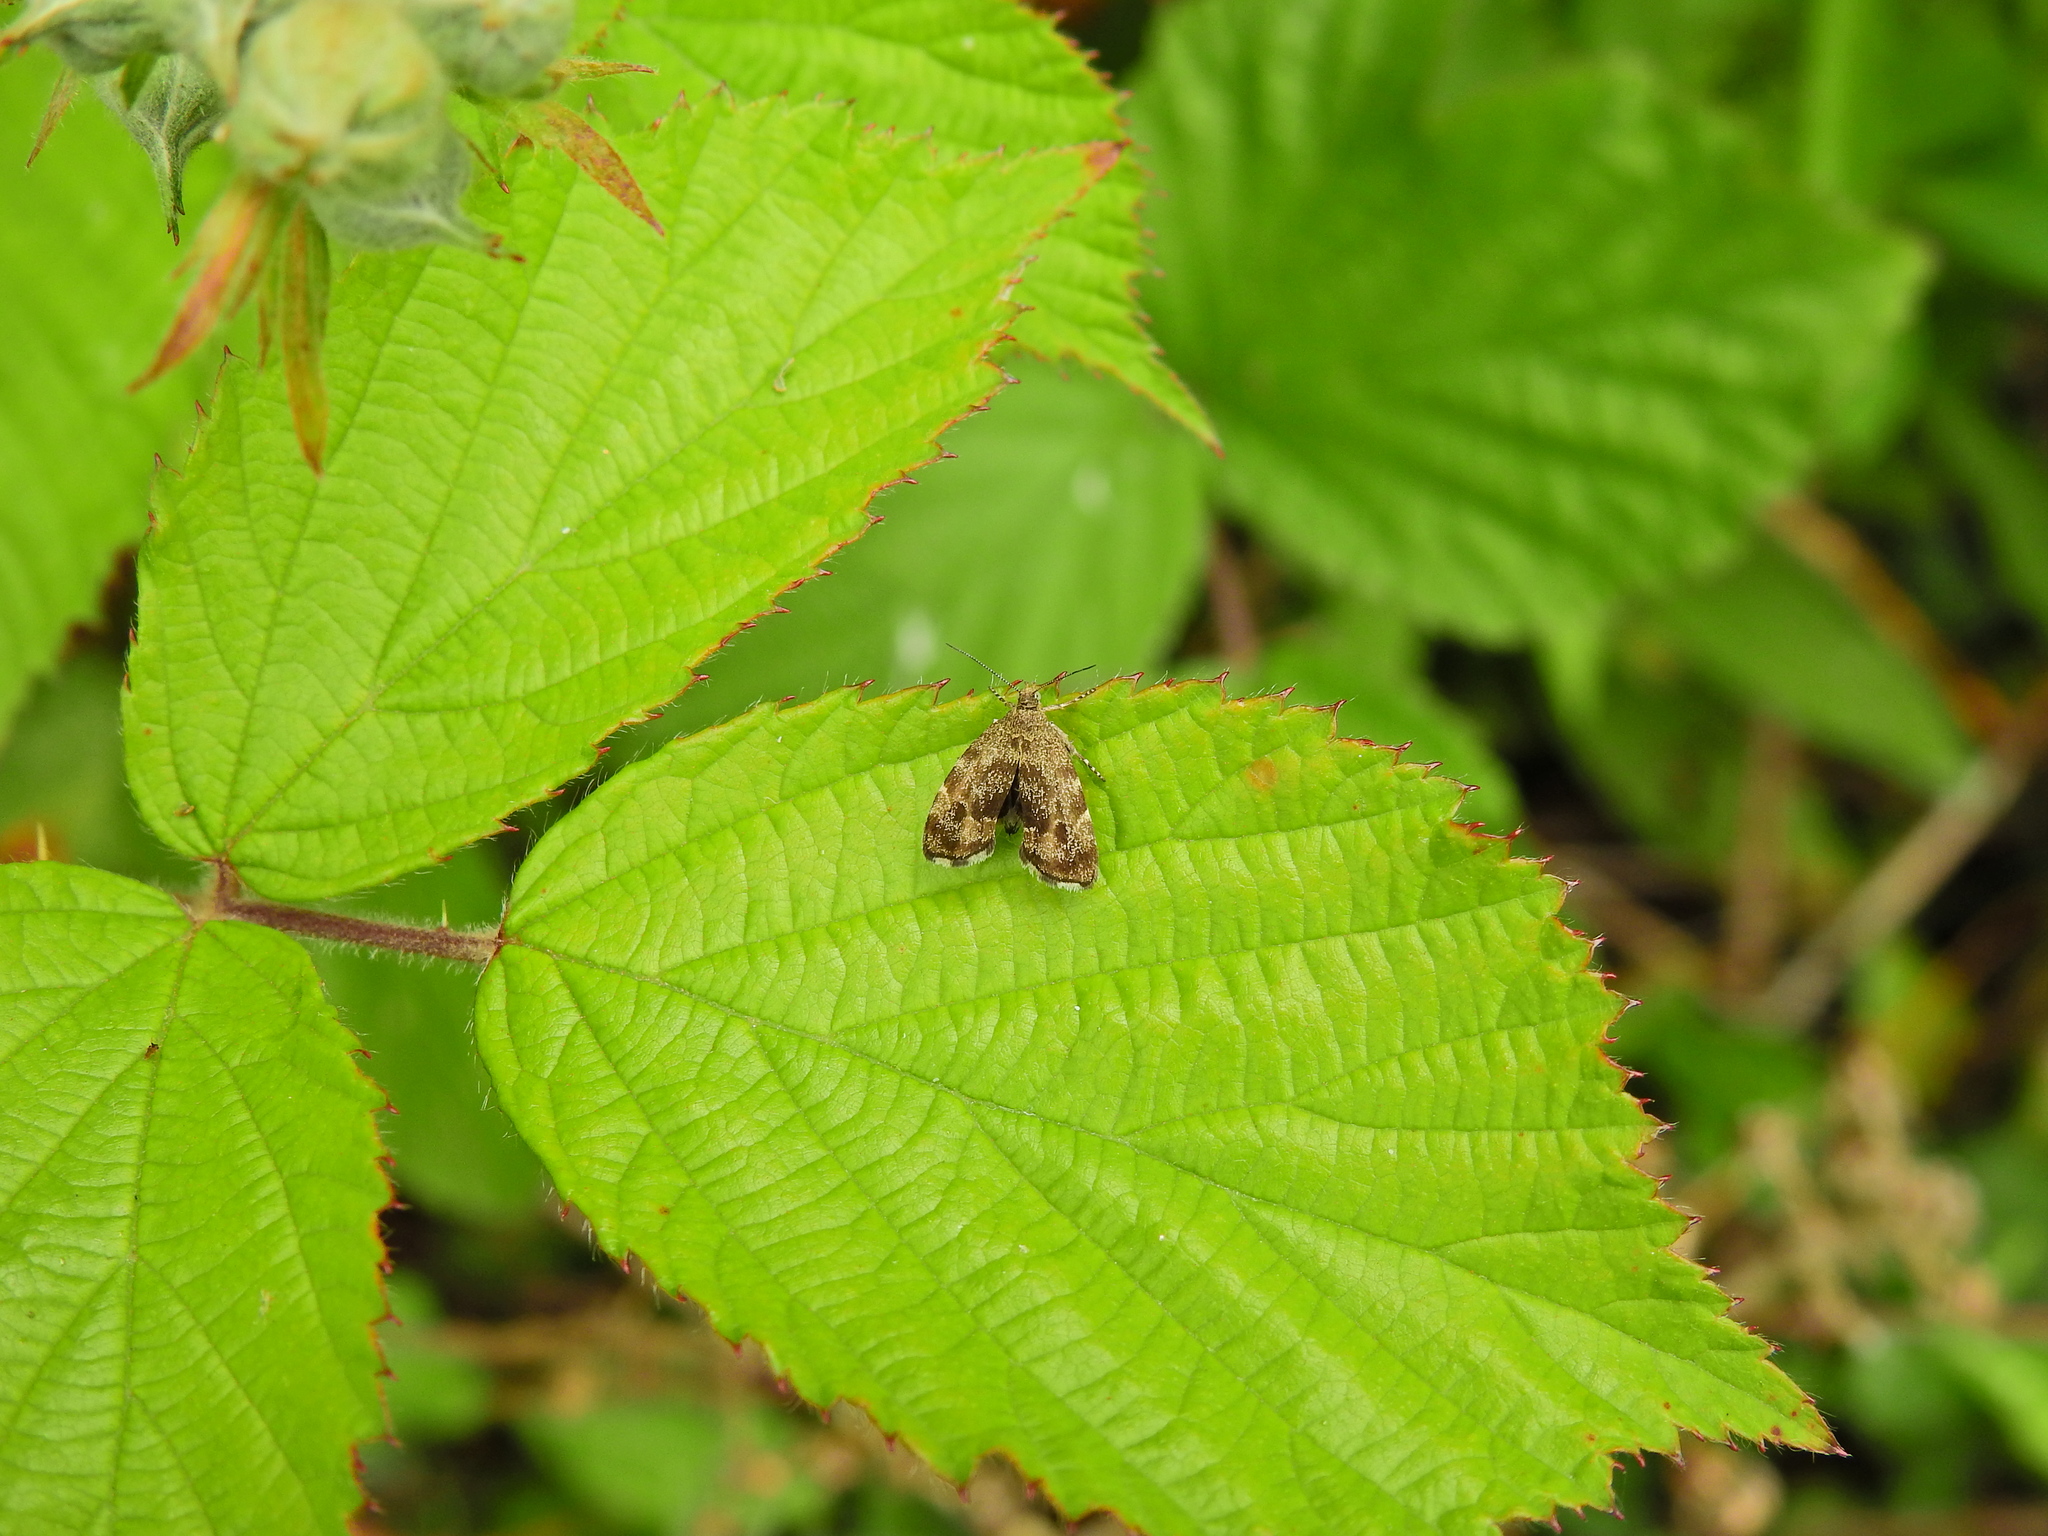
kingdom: Animalia
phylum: Arthropoda
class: Insecta
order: Lepidoptera
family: Choreutidae
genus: Anthophila
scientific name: Anthophila fabriciana
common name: Nettle-tap
